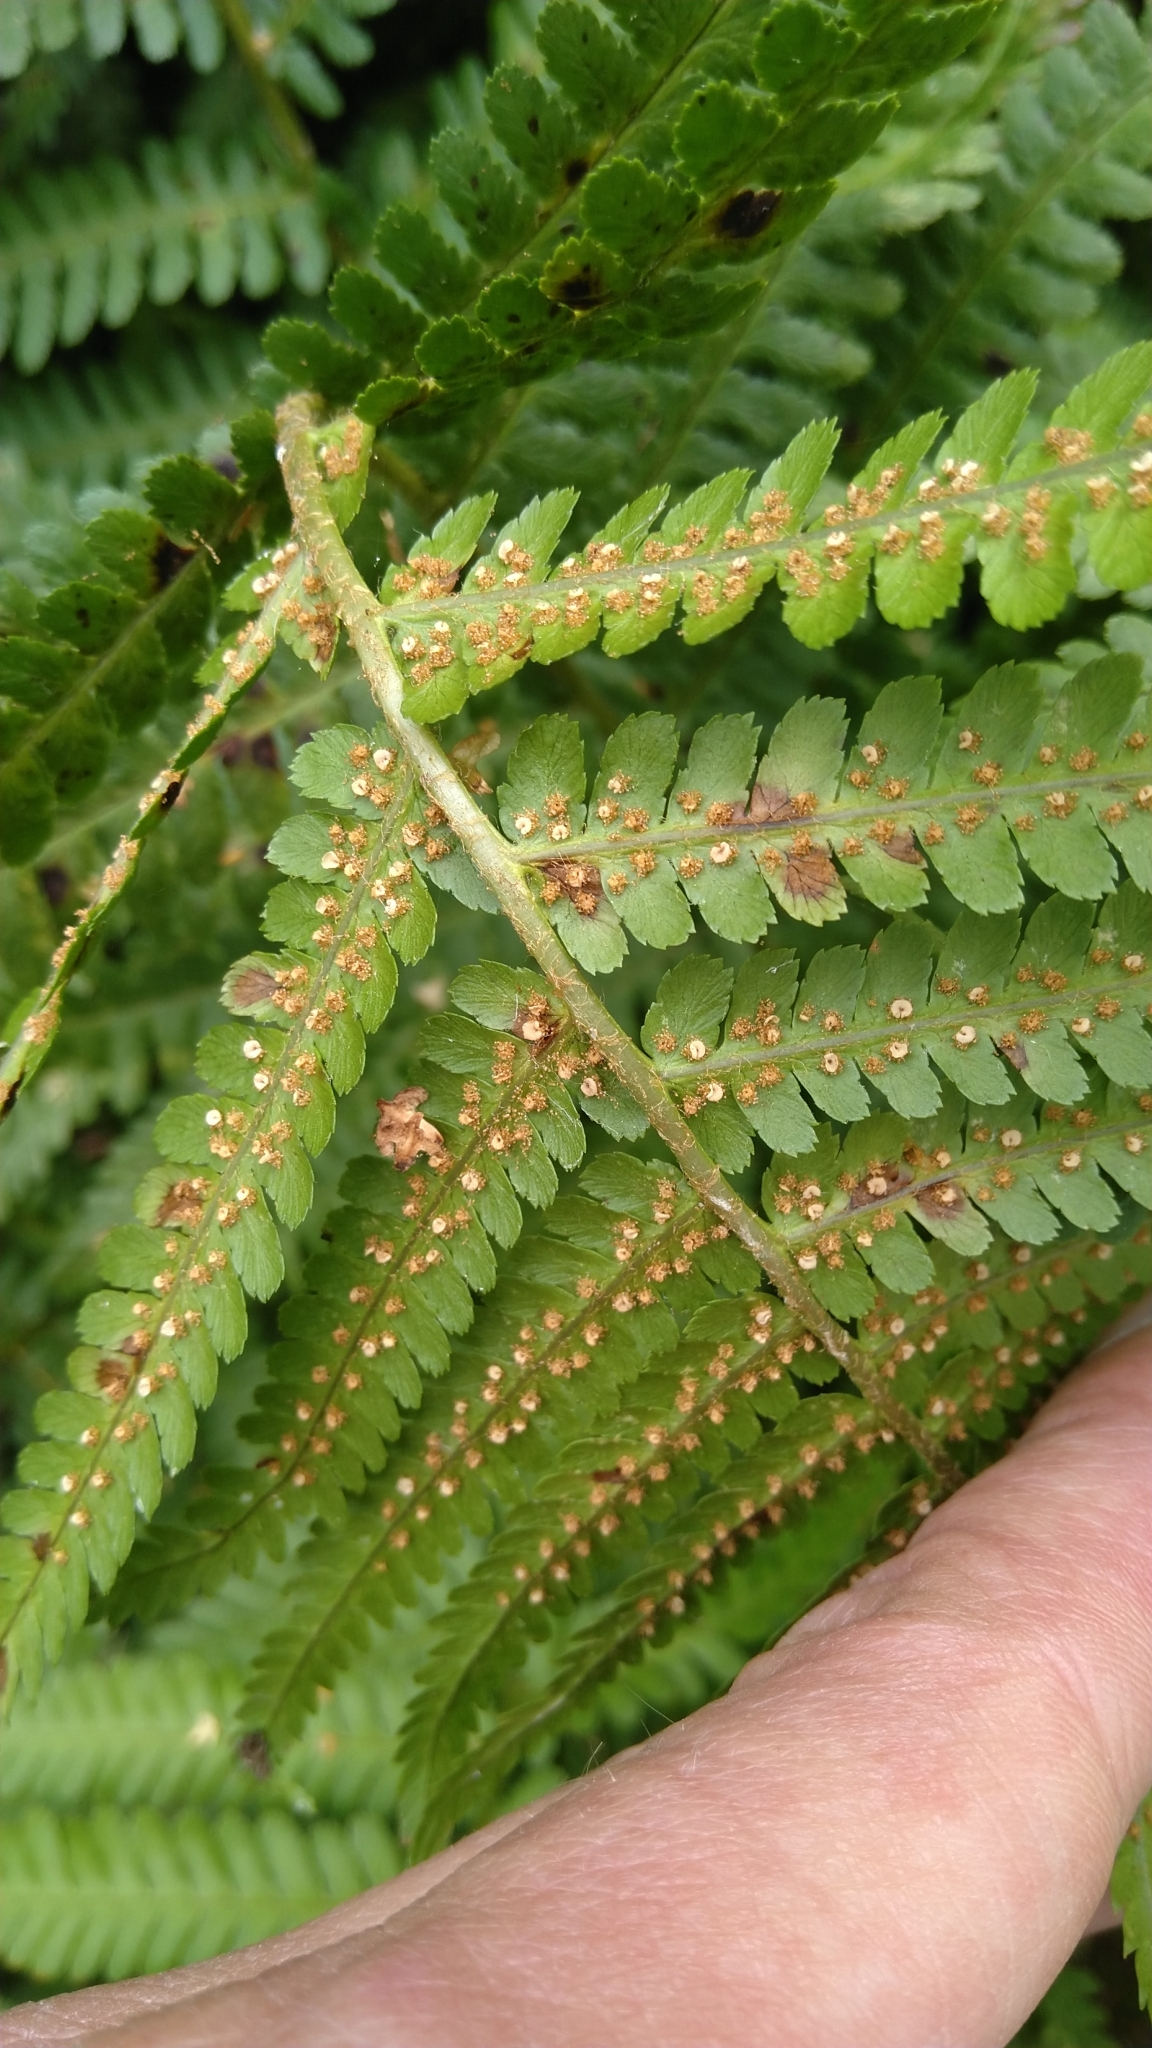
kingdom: Plantae
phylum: Tracheophyta
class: Polypodiopsida
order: Polypodiales
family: Dryopteridaceae
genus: Dryopteris
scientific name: Dryopteris filix-mas
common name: Male fern
